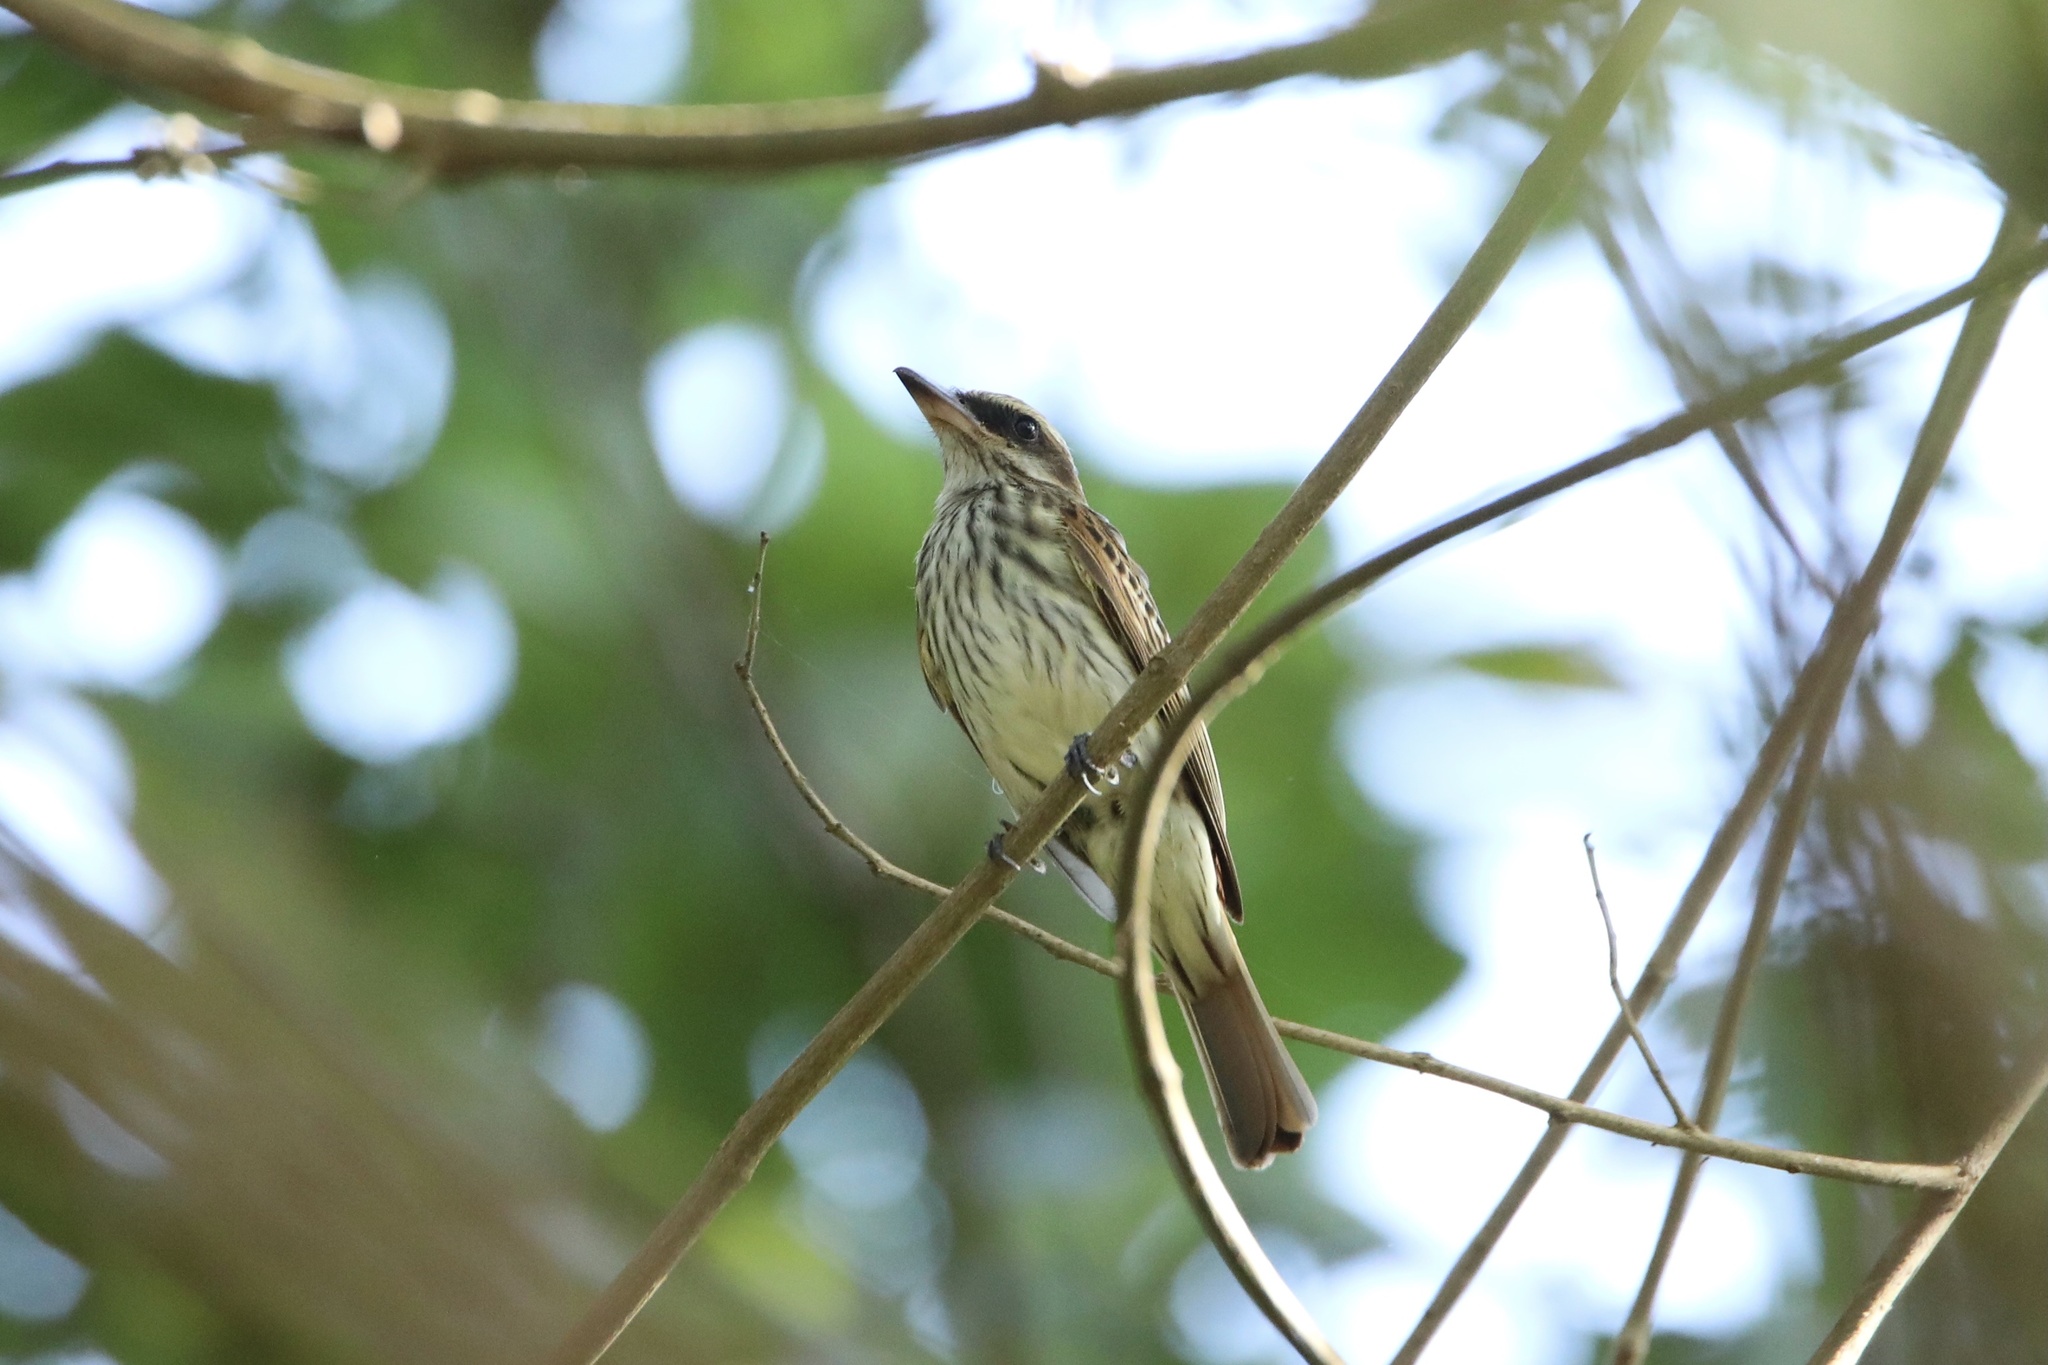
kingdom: Animalia
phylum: Chordata
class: Aves
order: Passeriformes
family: Tyrannidae
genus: Myiodynastes
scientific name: Myiodynastes maculatus
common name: Streaked flycatcher
